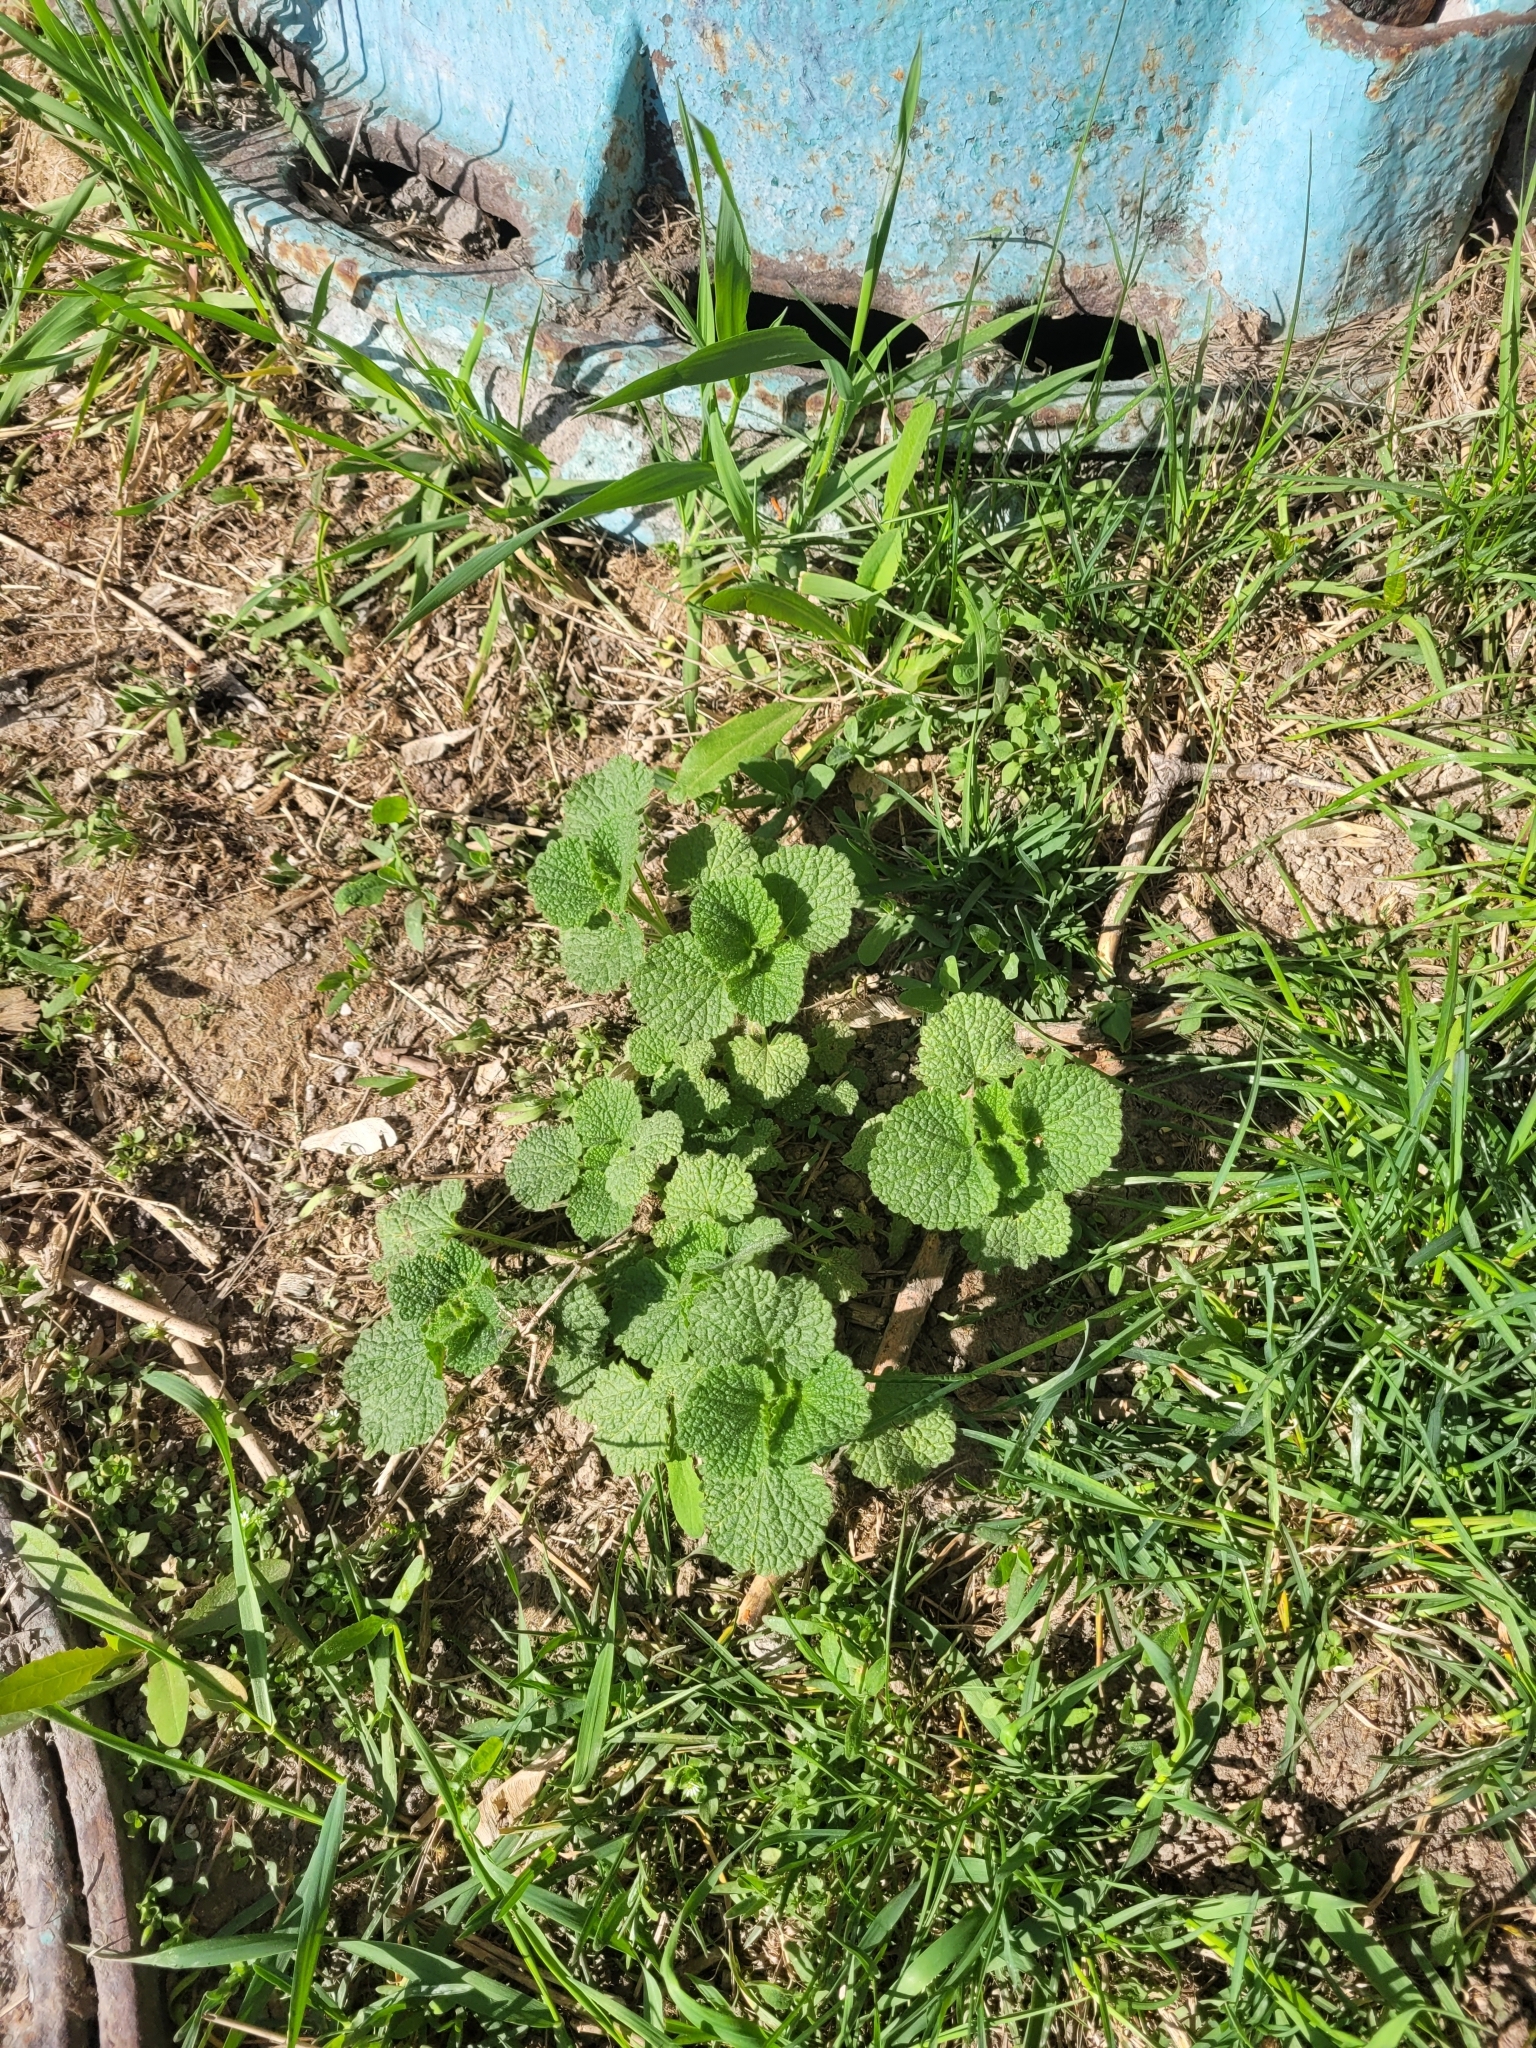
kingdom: Plantae
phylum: Tracheophyta
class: Magnoliopsida
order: Lamiales
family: Lamiaceae
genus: Ballota
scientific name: Ballota nigra
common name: Black horehound
